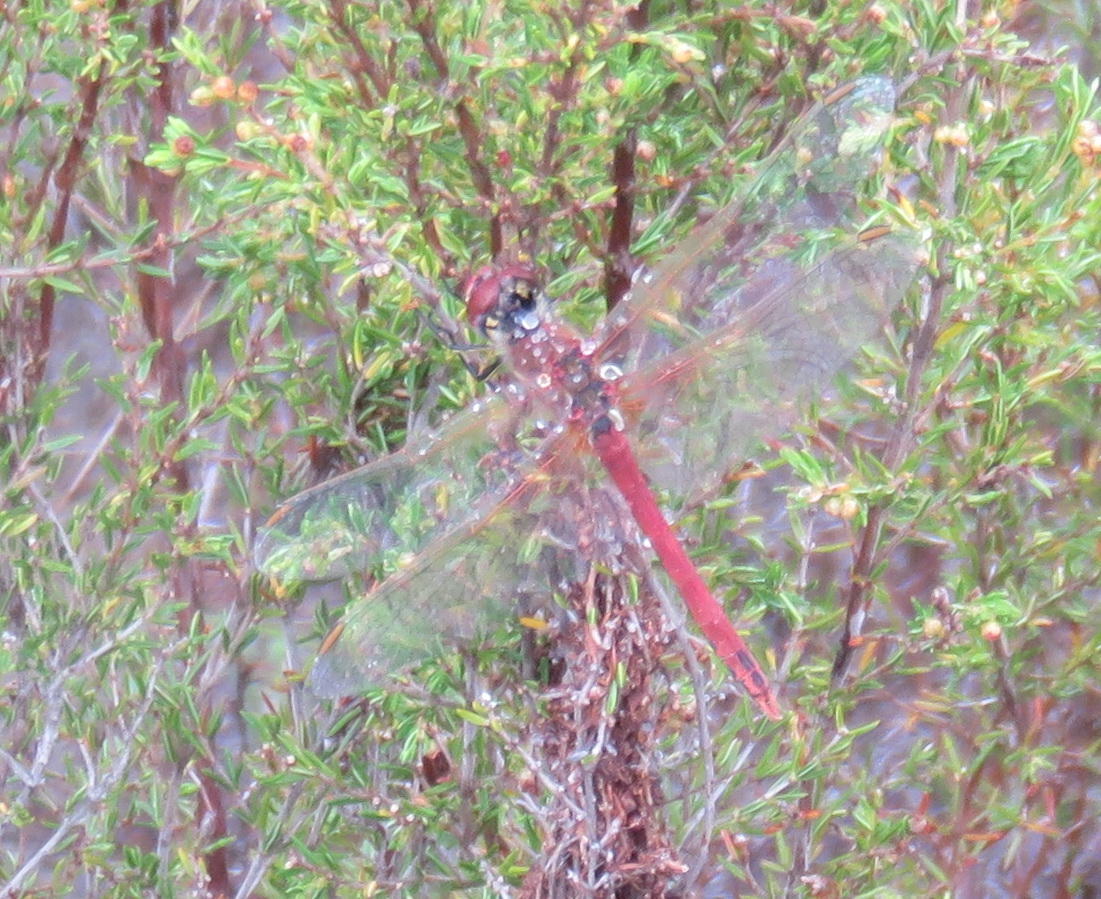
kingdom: Animalia
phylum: Arthropoda
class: Insecta
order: Odonata
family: Libellulidae
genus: Sympetrum
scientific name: Sympetrum fonscolombii
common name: Red-veined darter
